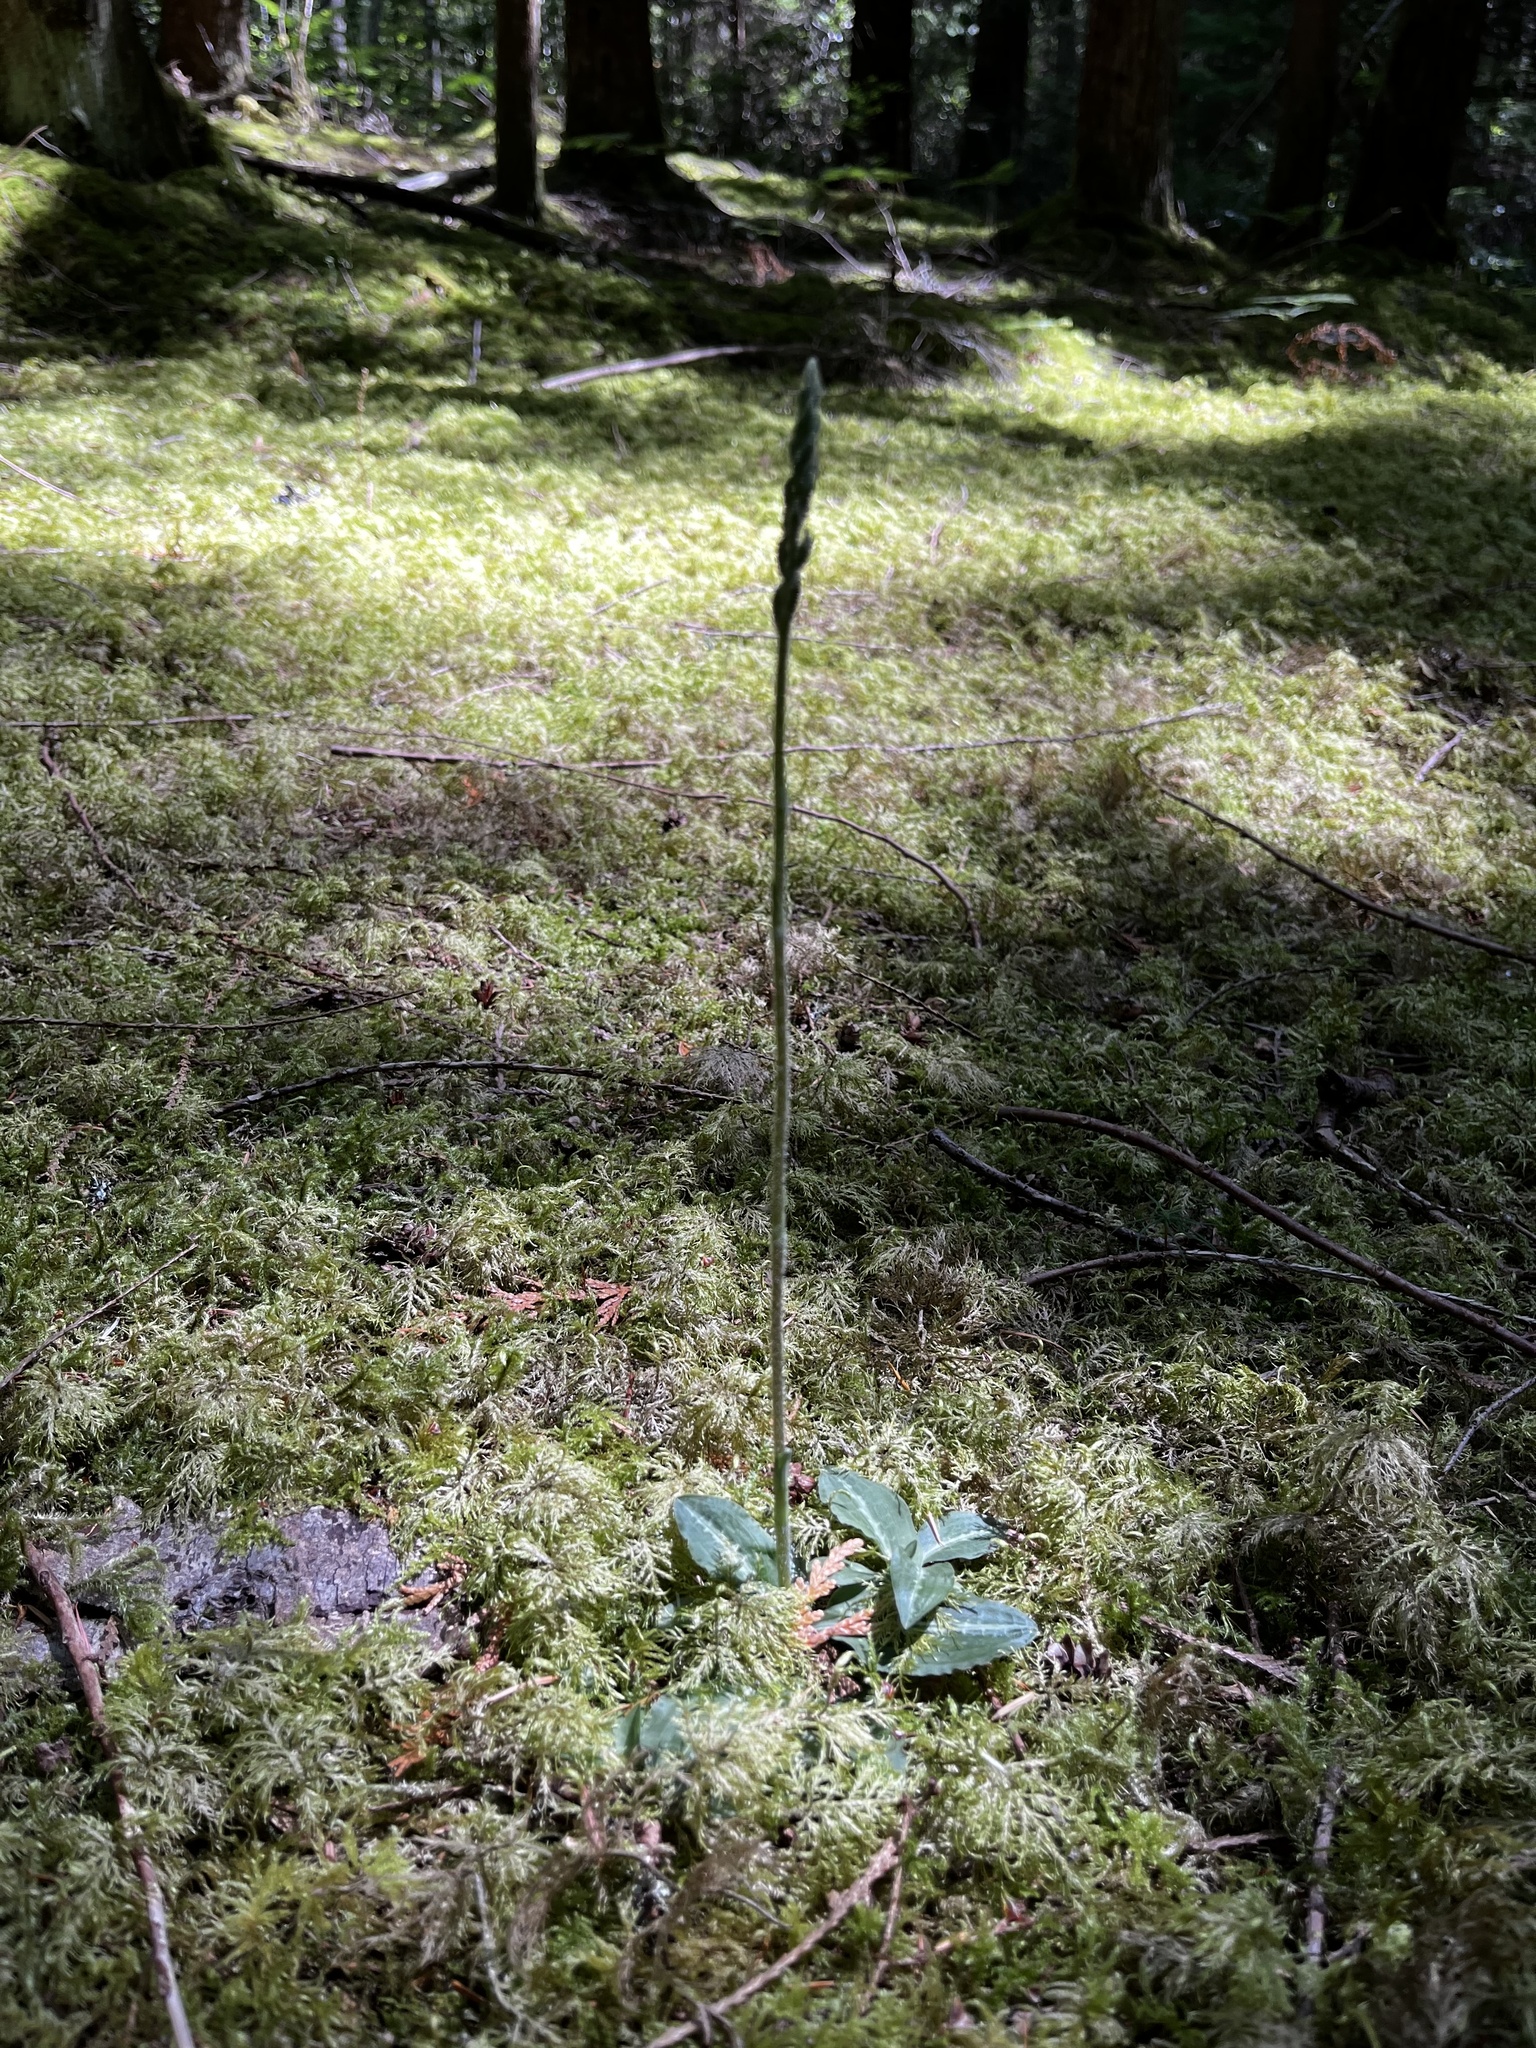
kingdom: Plantae
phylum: Tracheophyta
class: Liliopsida
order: Asparagales
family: Orchidaceae
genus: Goodyera
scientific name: Goodyera oblongifolia
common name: Giant rattlesnake-plantain
